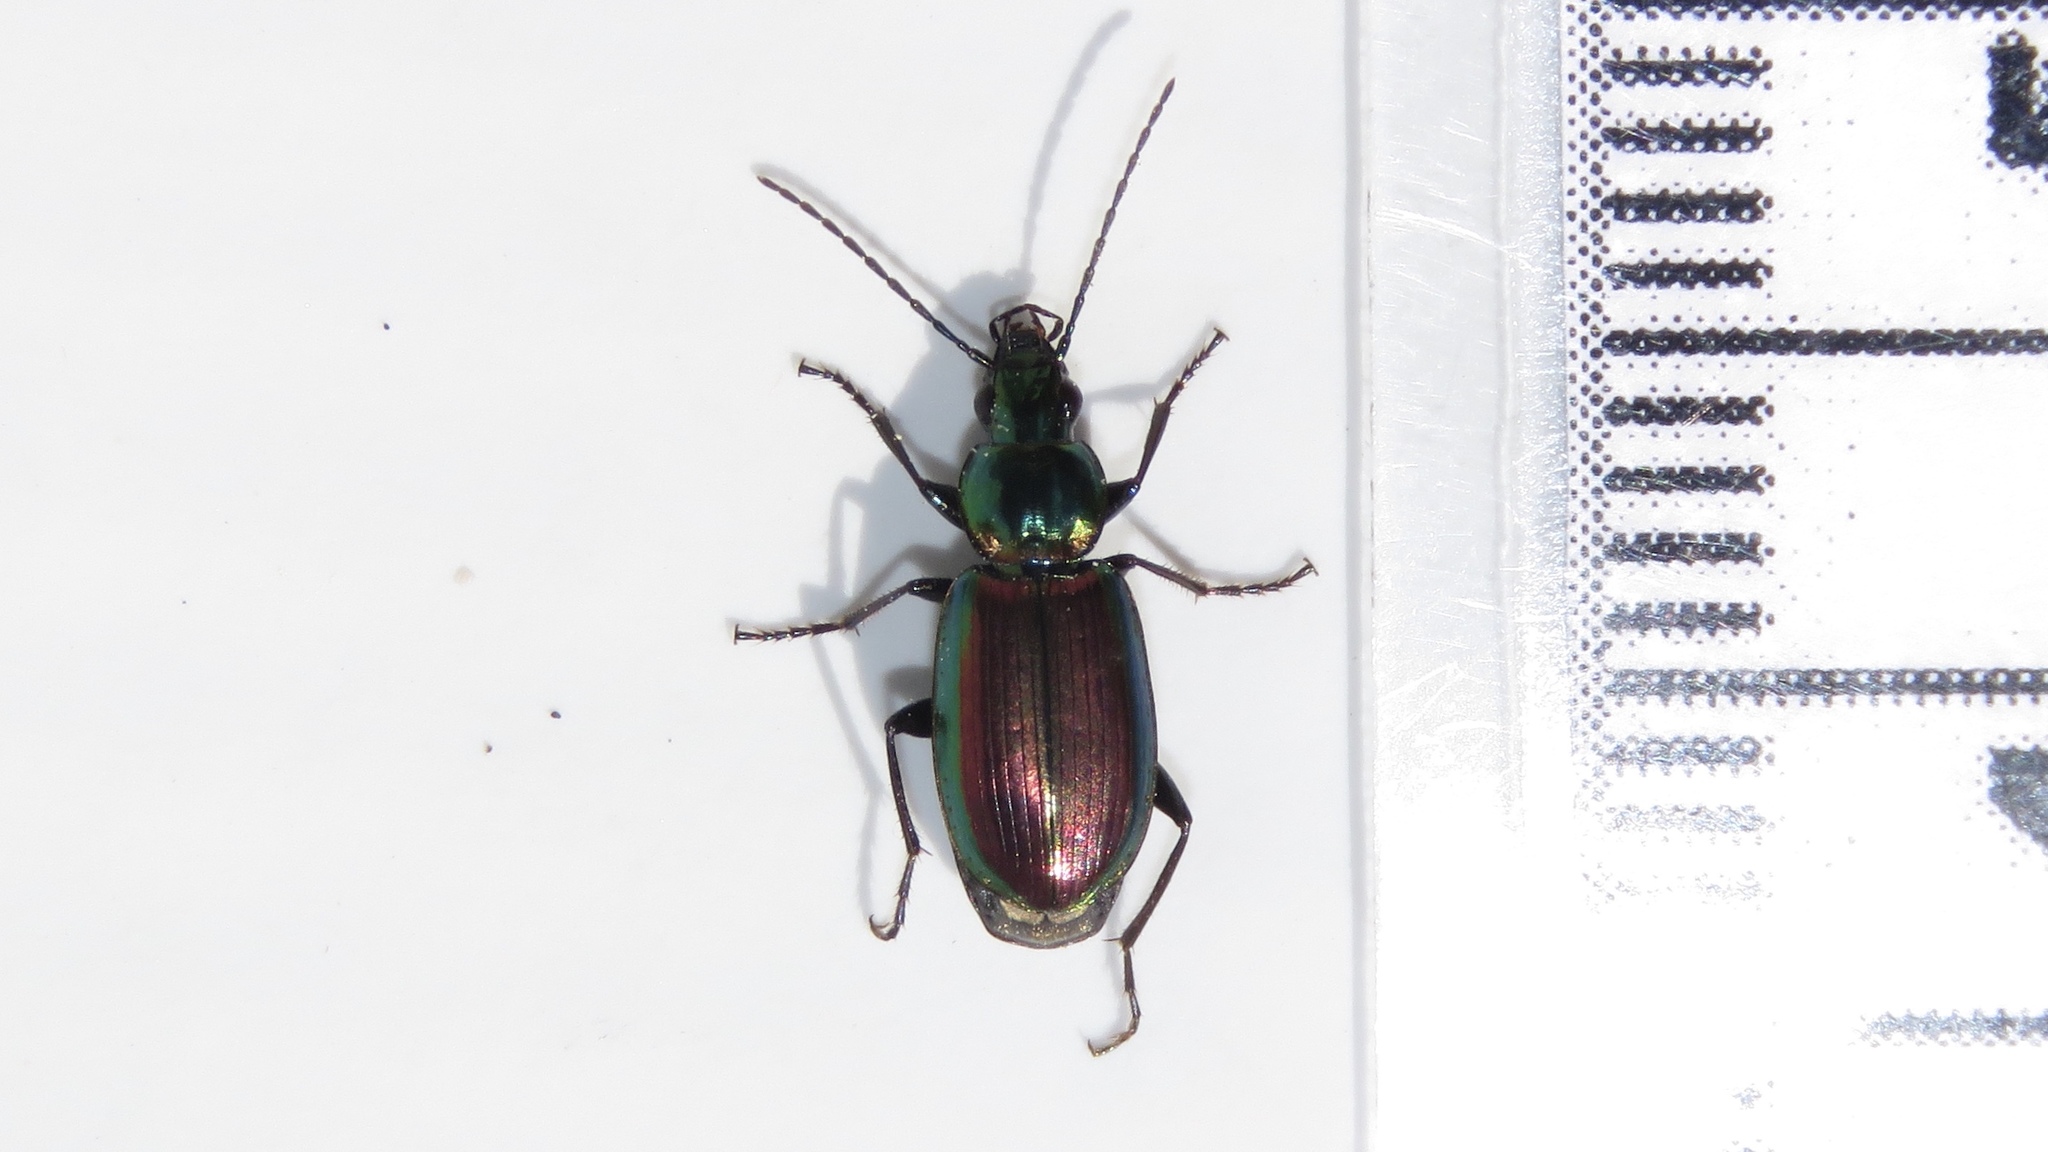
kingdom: Animalia
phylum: Arthropoda
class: Insecta
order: Coleoptera
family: Carabidae
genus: Agonum
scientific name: Agonum cupripenne
